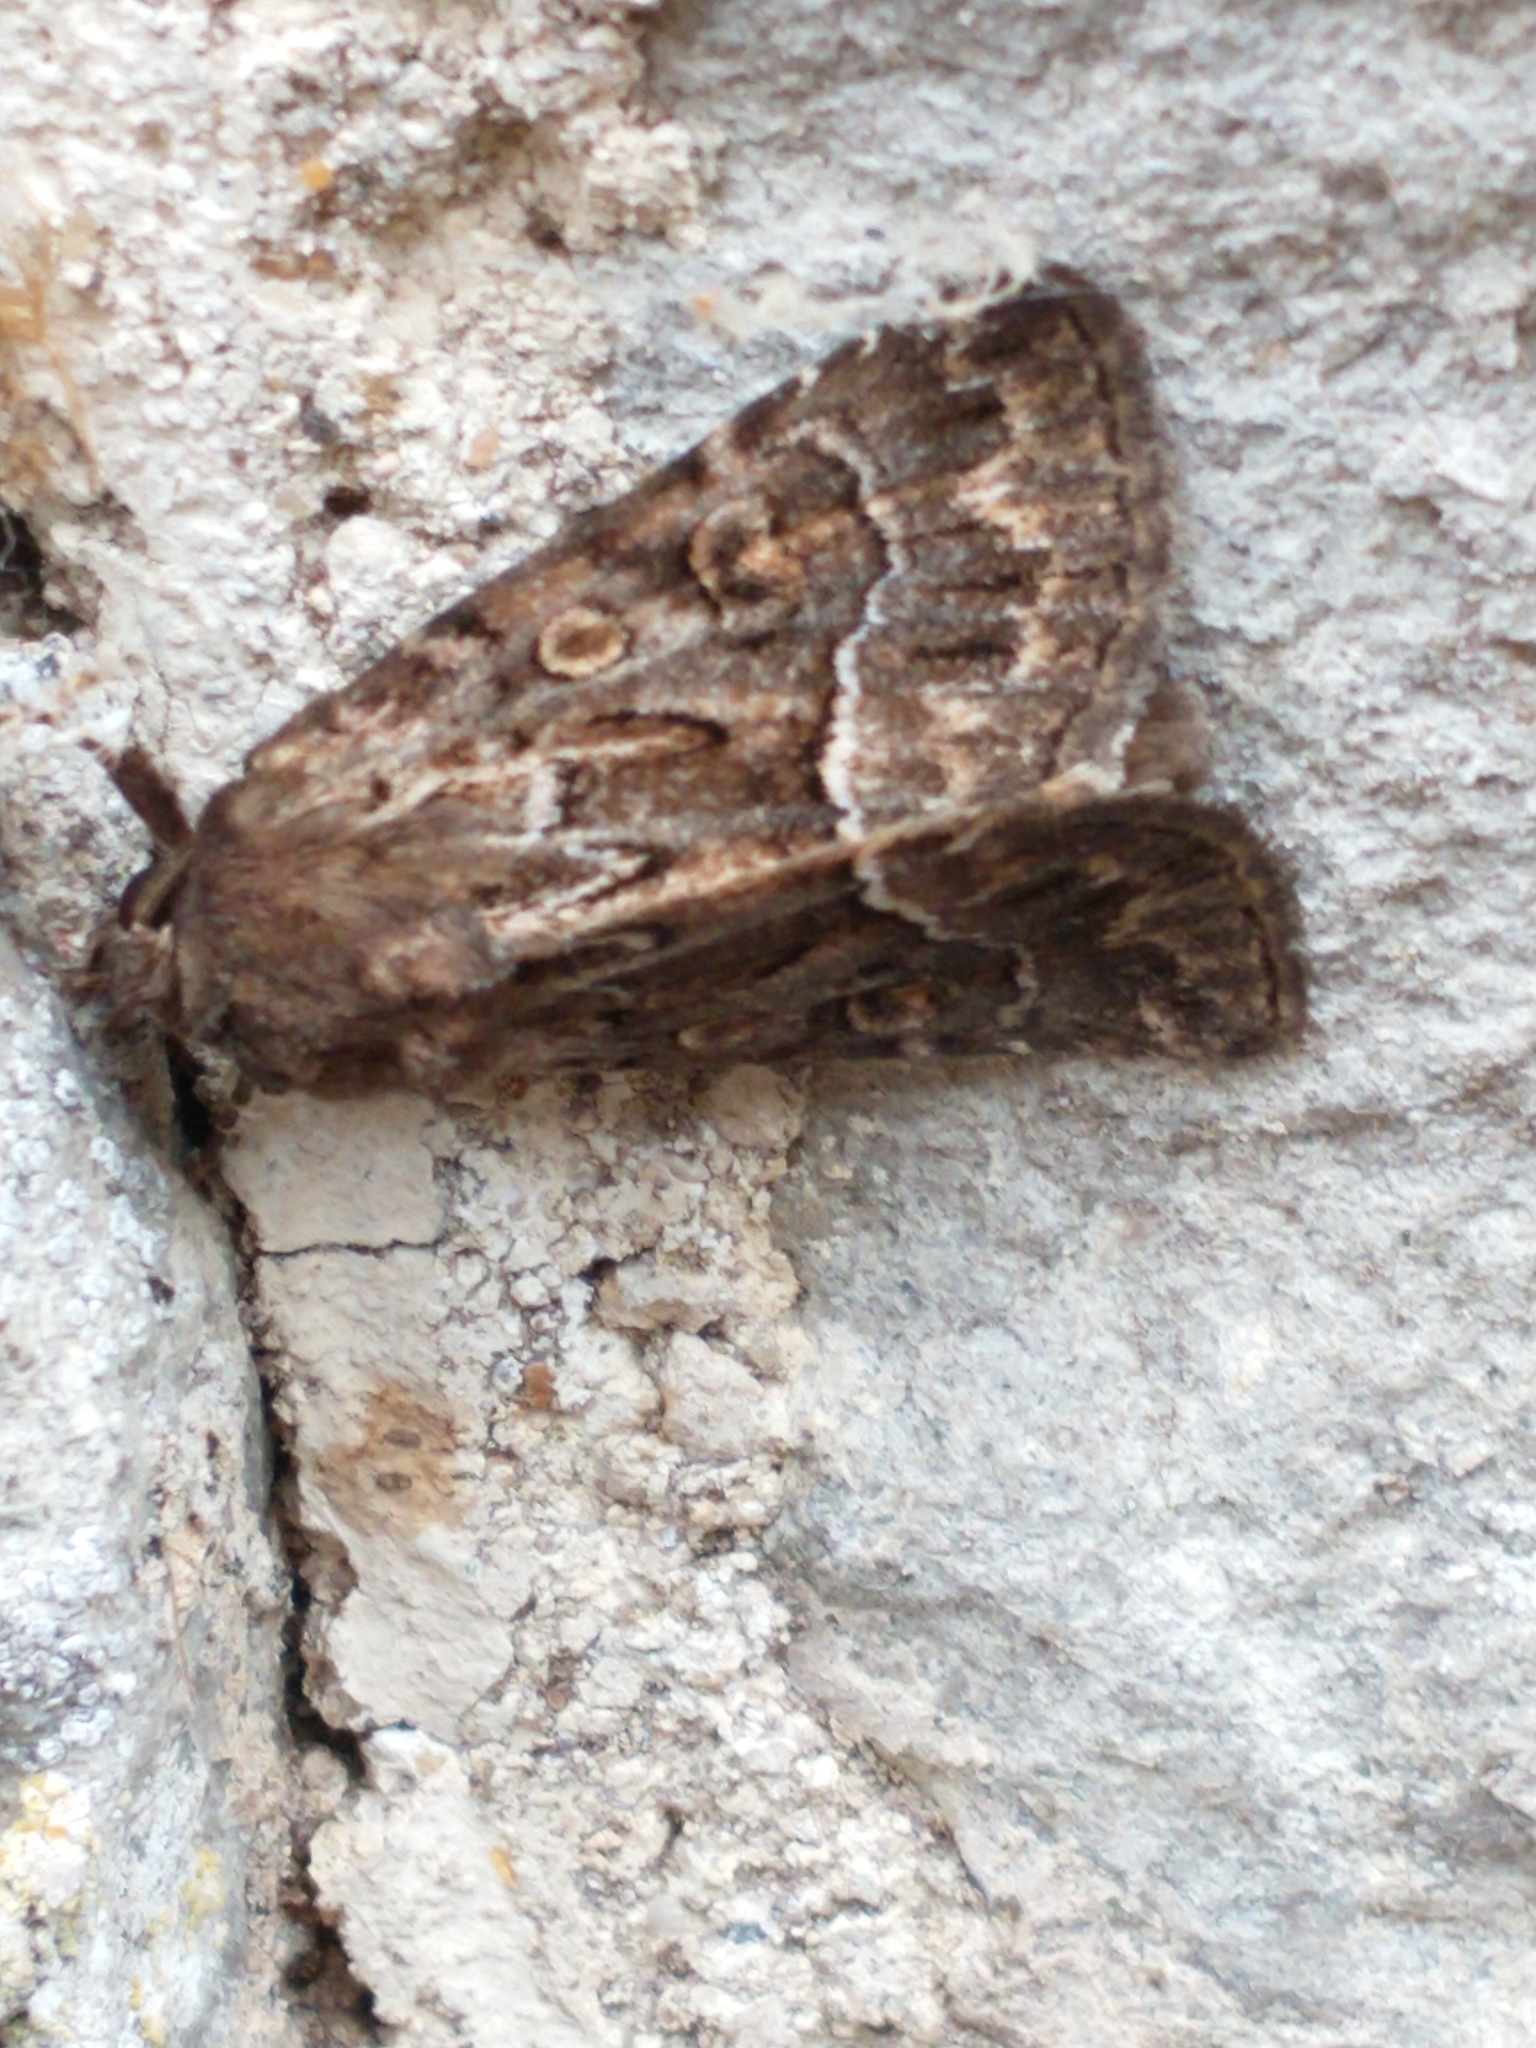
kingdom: Animalia
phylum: Arthropoda
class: Insecta
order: Lepidoptera
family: Noctuidae
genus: Thalpophila
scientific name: Thalpophila matura
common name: Straw underwing
